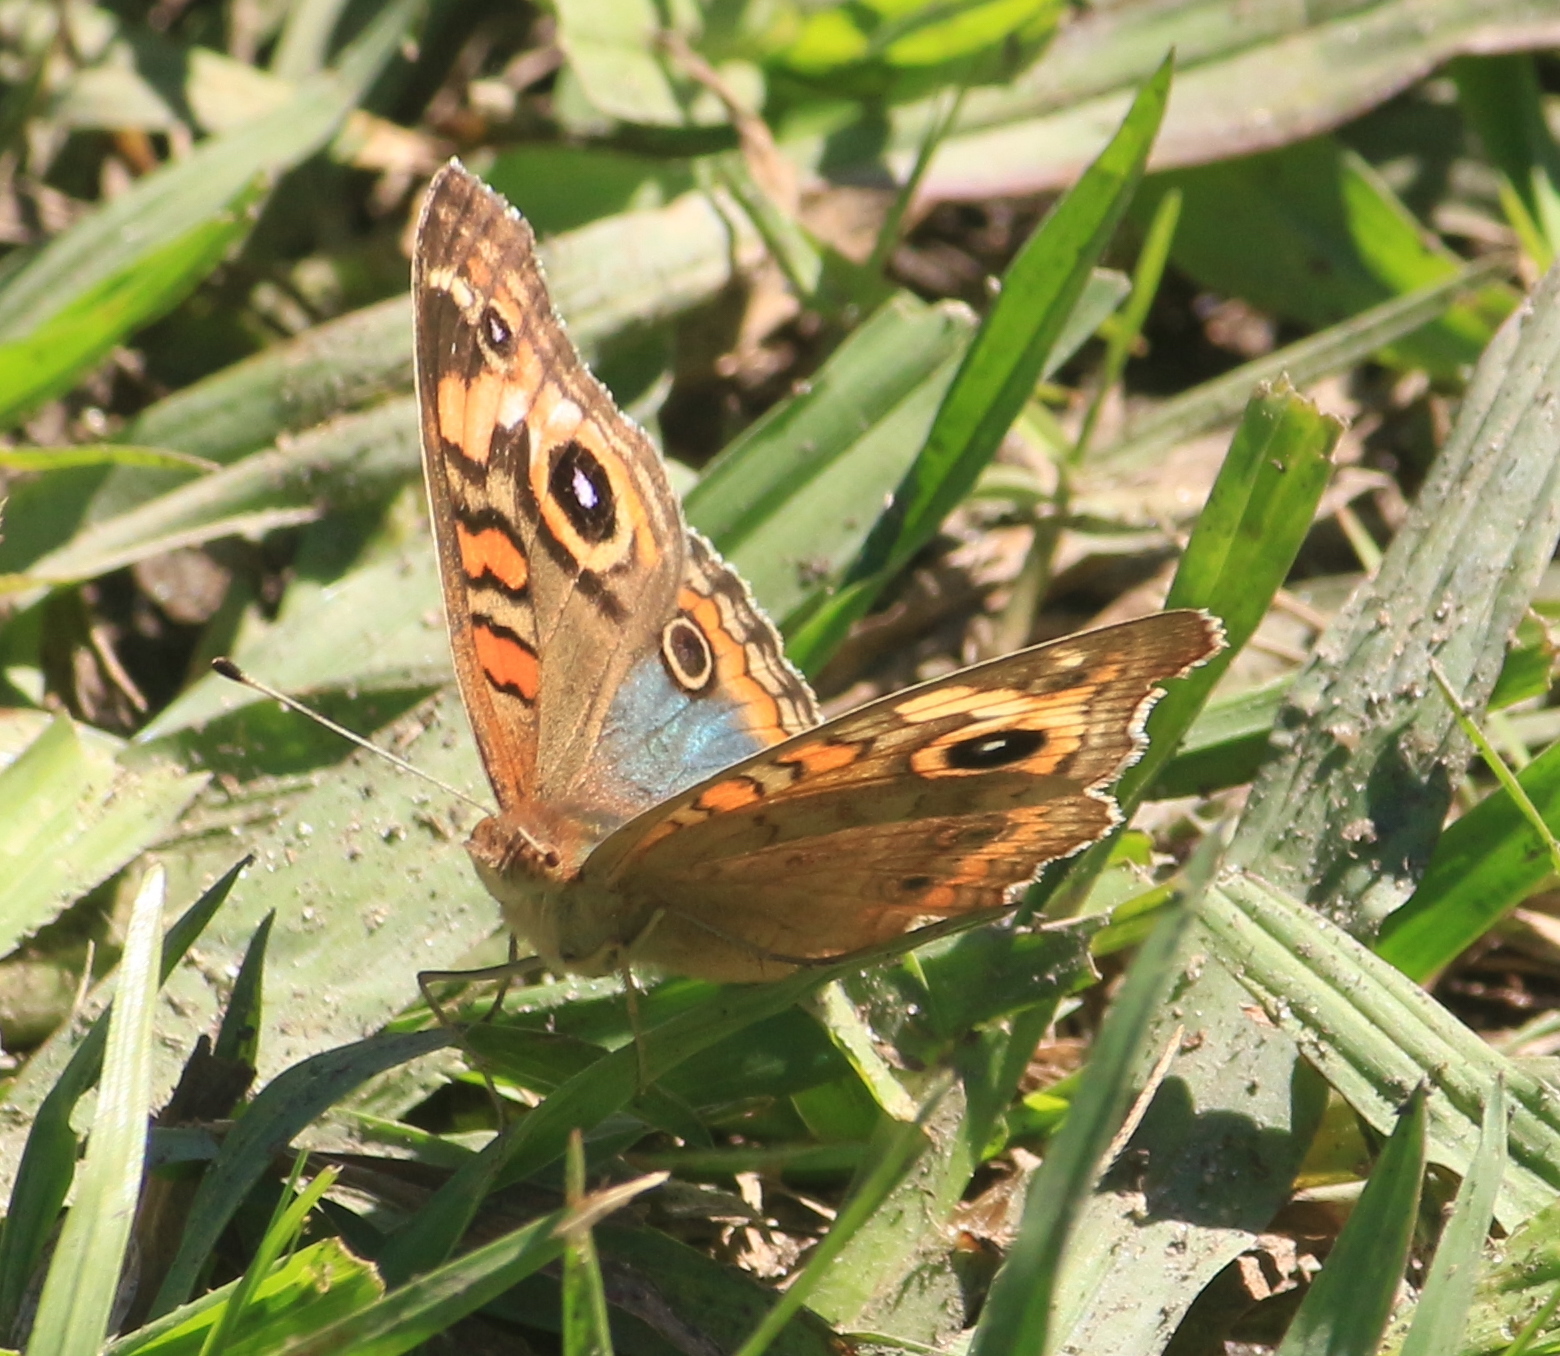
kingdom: Animalia
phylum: Arthropoda
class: Insecta
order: Lepidoptera
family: Nymphalidae
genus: Junonia
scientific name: Junonia lavinia
